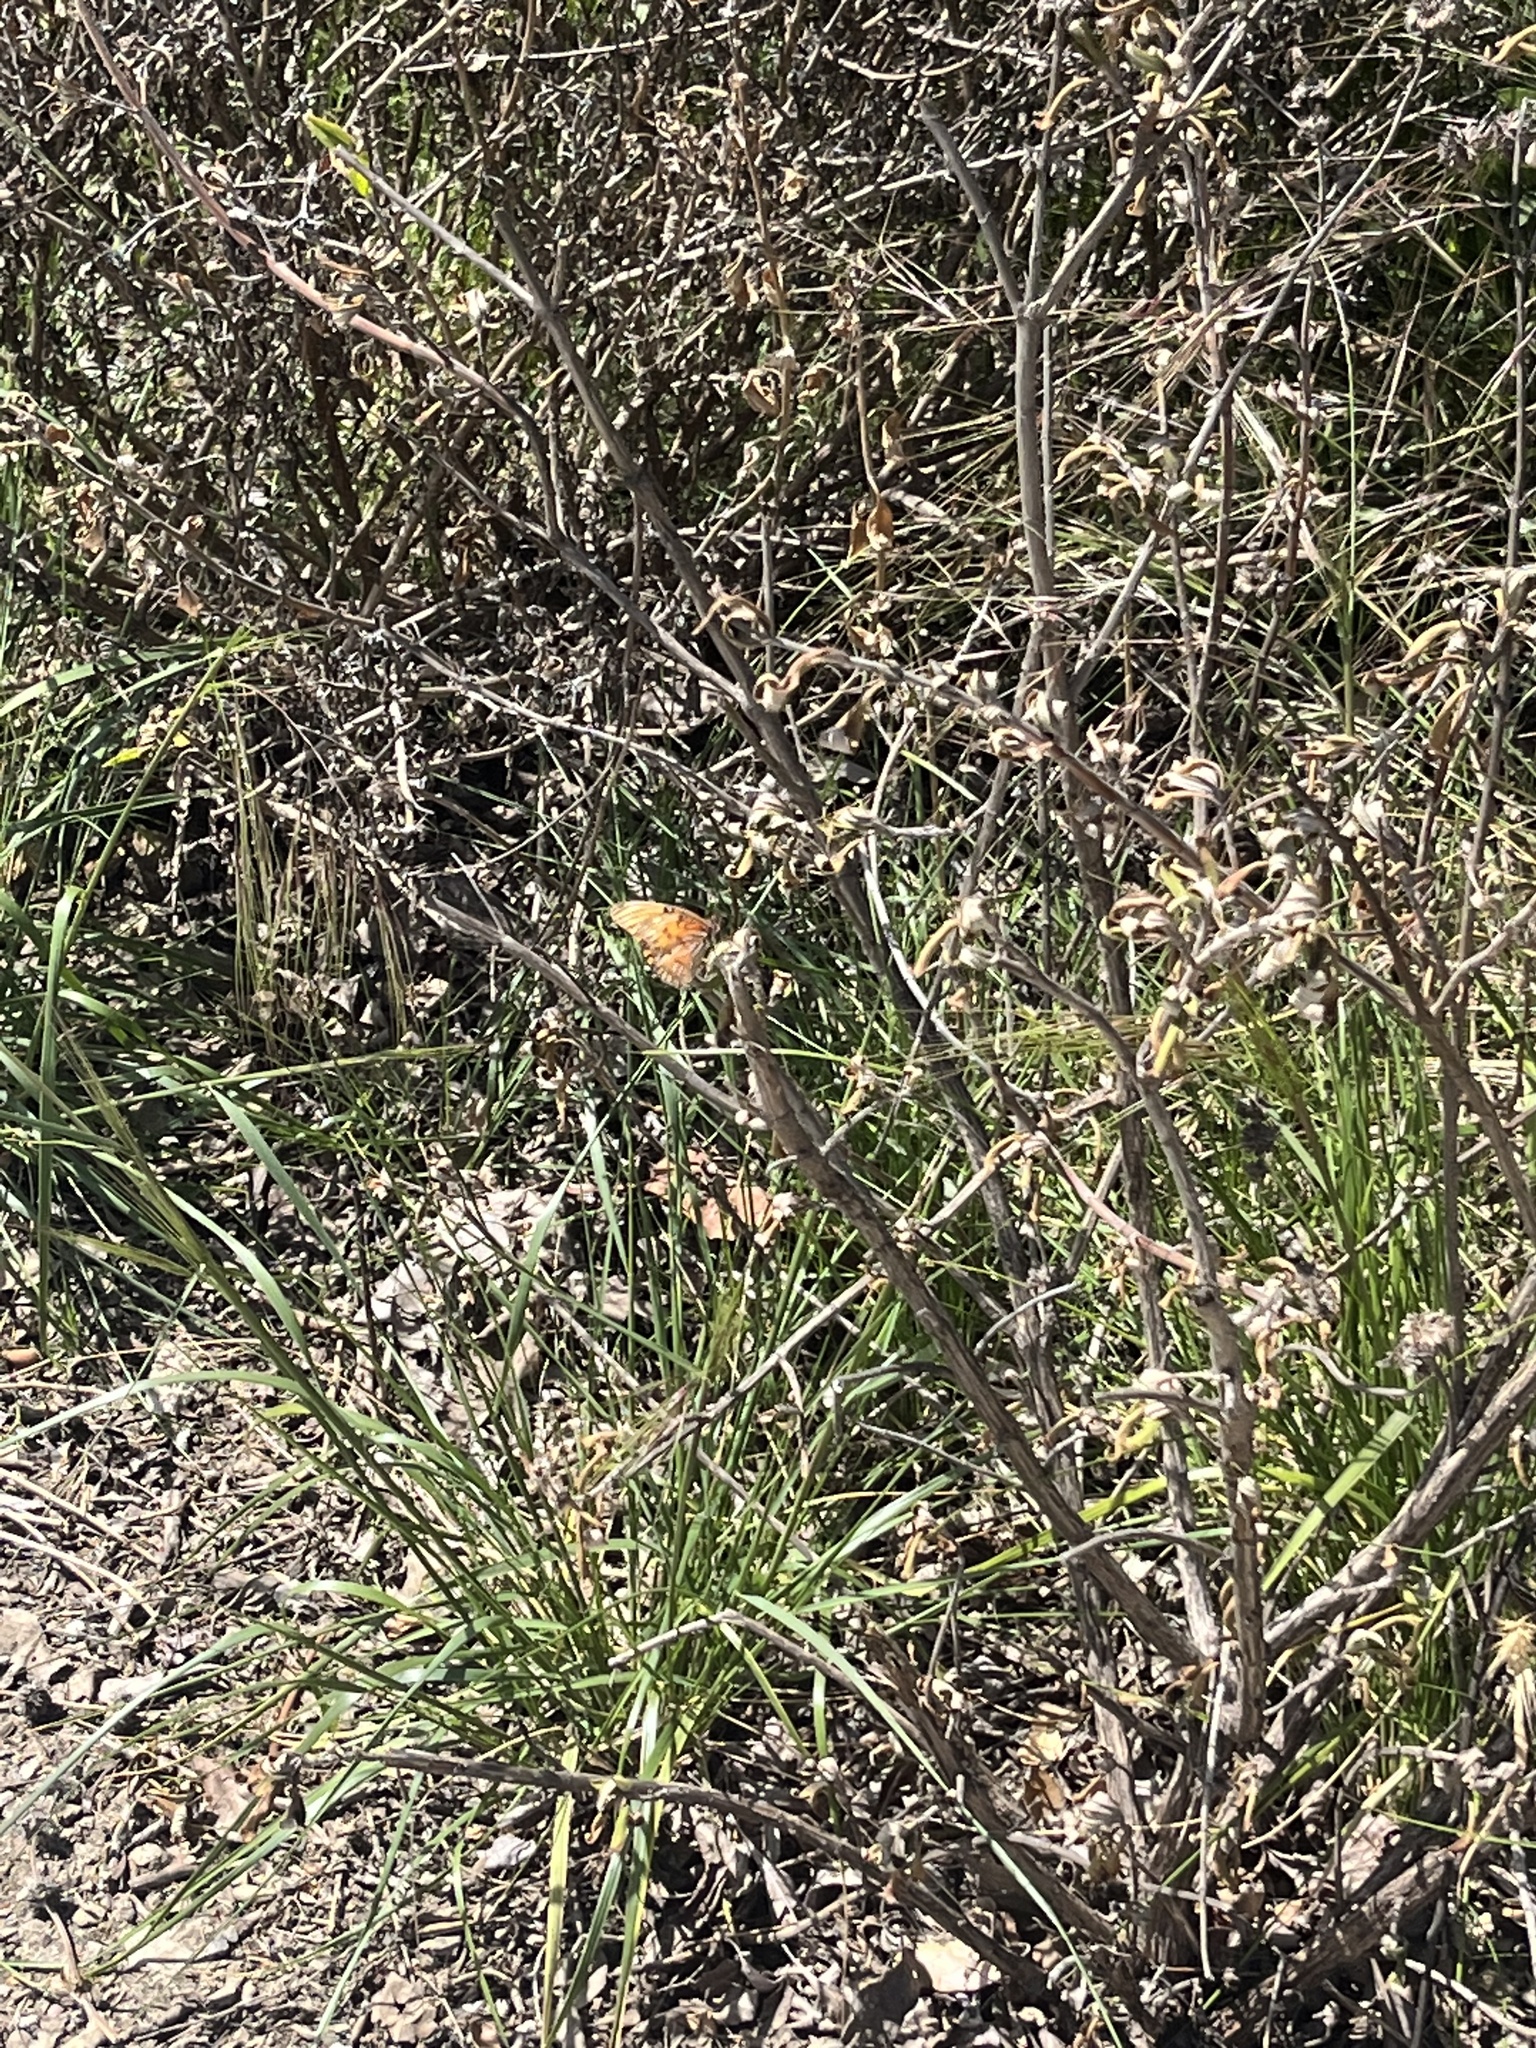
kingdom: Animalia
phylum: Arthropoda
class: Insecta
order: Lepidoptera
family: Nymphalidae
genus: Dione
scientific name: Dione vanillae
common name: Gulf fritillary
